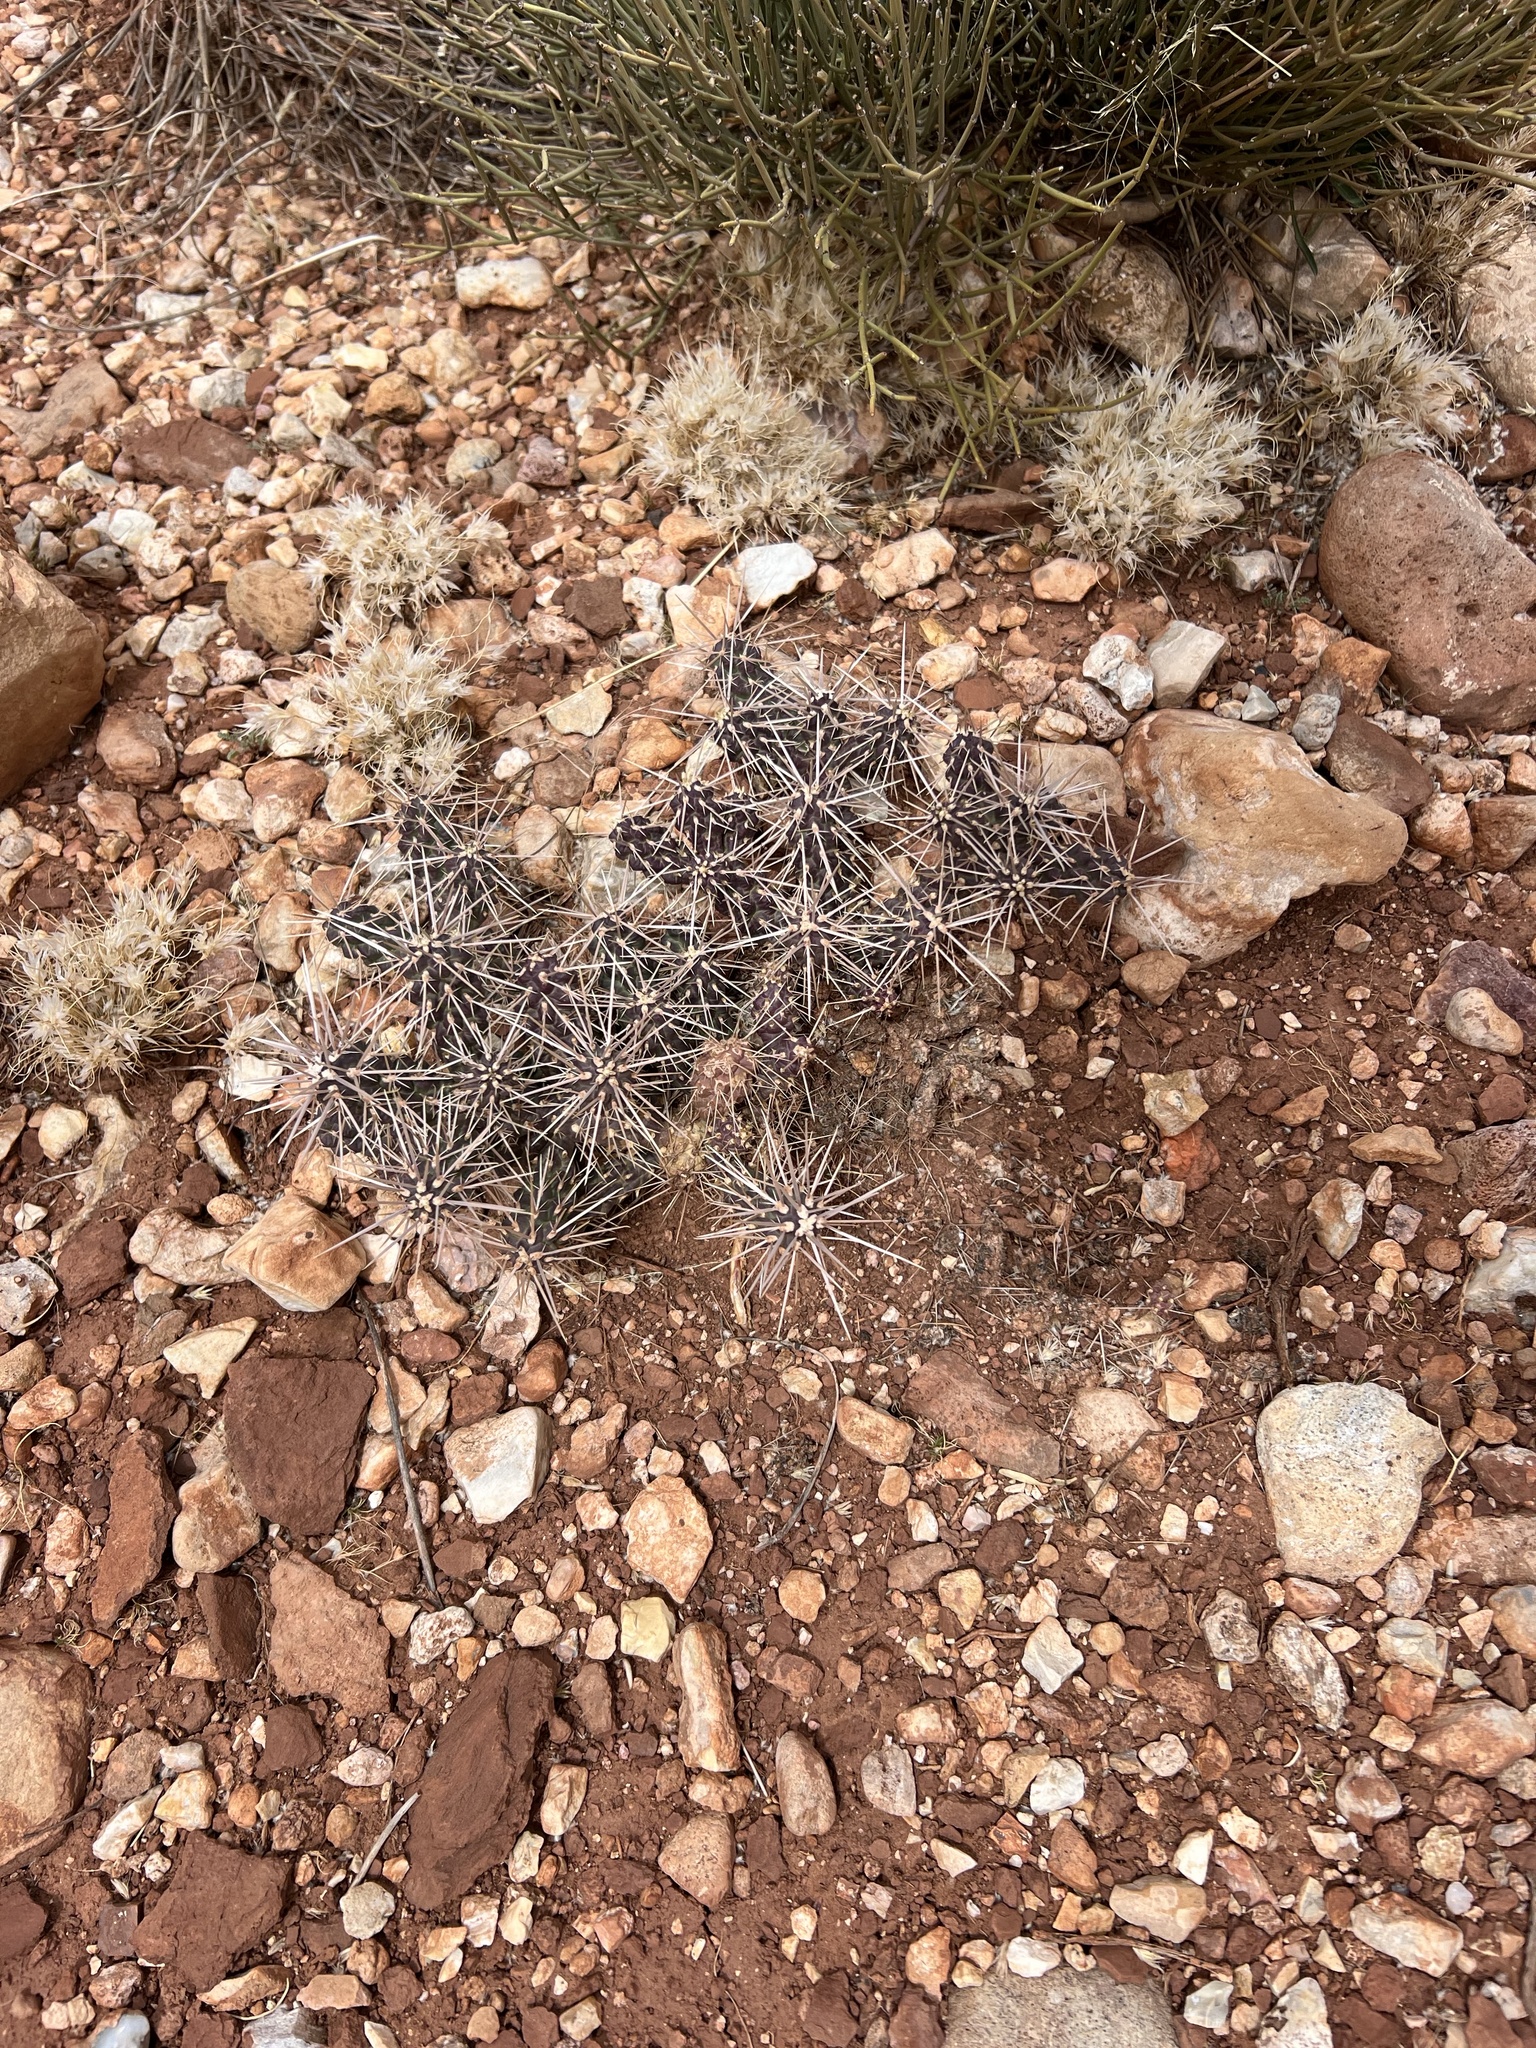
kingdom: Plantae
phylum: Tracheophyta
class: Magnoliopsida
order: Caryophyllales
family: Cactaceae
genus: Cylindropuntia
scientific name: Cylindropuntia whipplei
